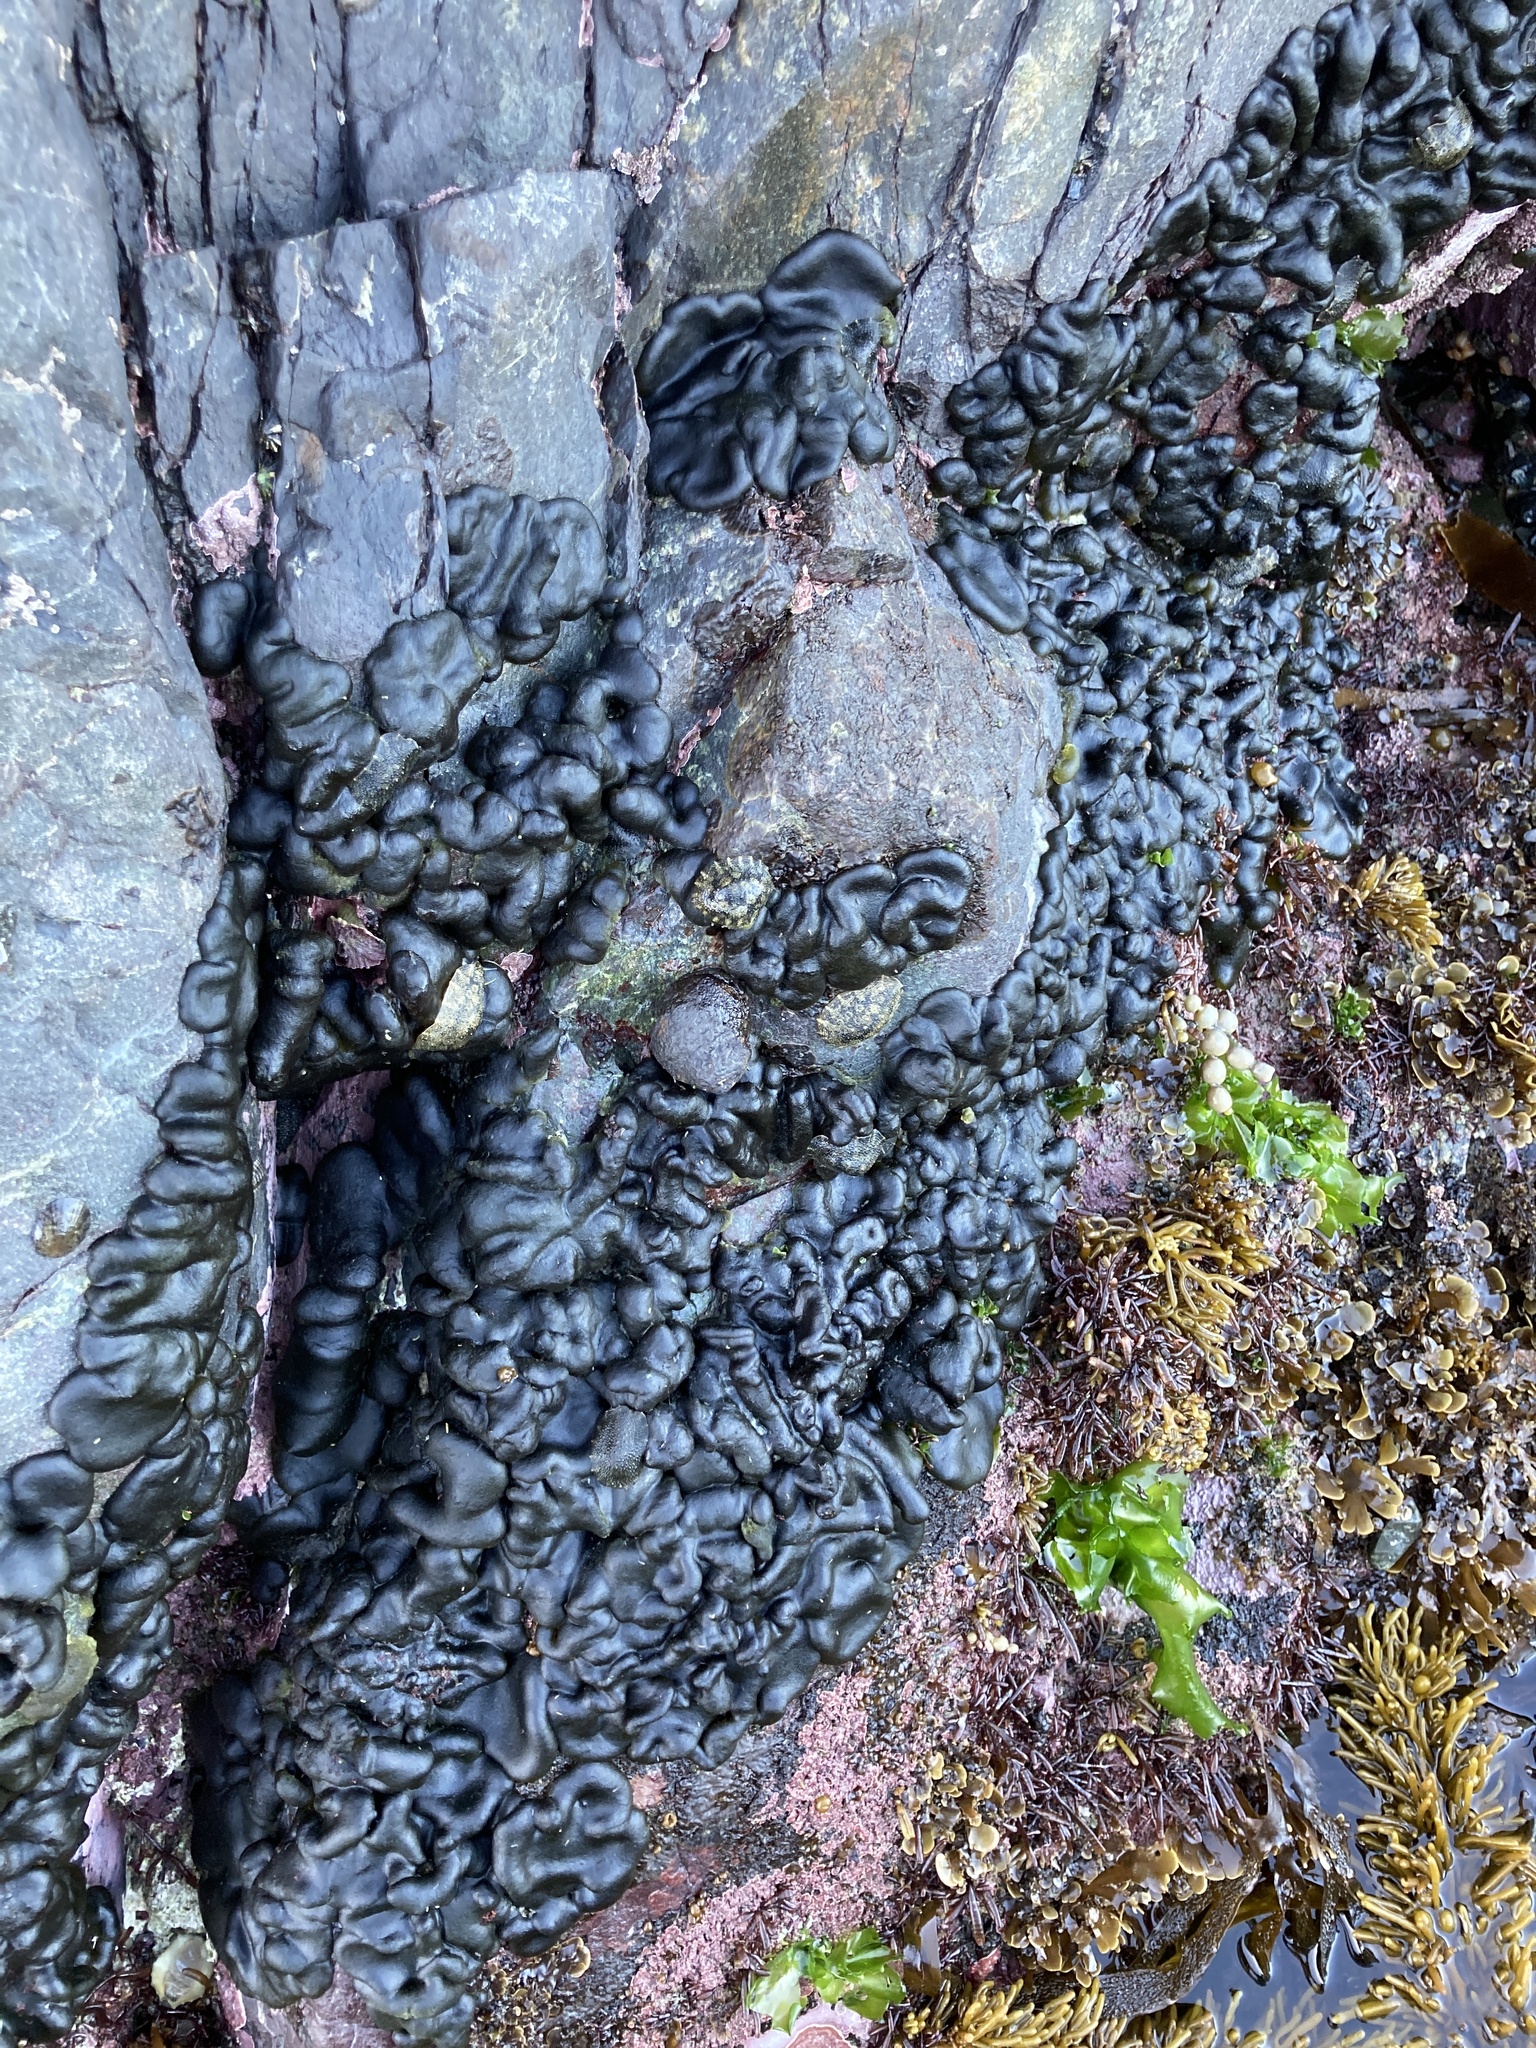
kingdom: Plantae
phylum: Chlorophyta
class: Ulvophyceae
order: Bryopsidales
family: Codiaceae
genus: Codium
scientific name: Codium convolutum
